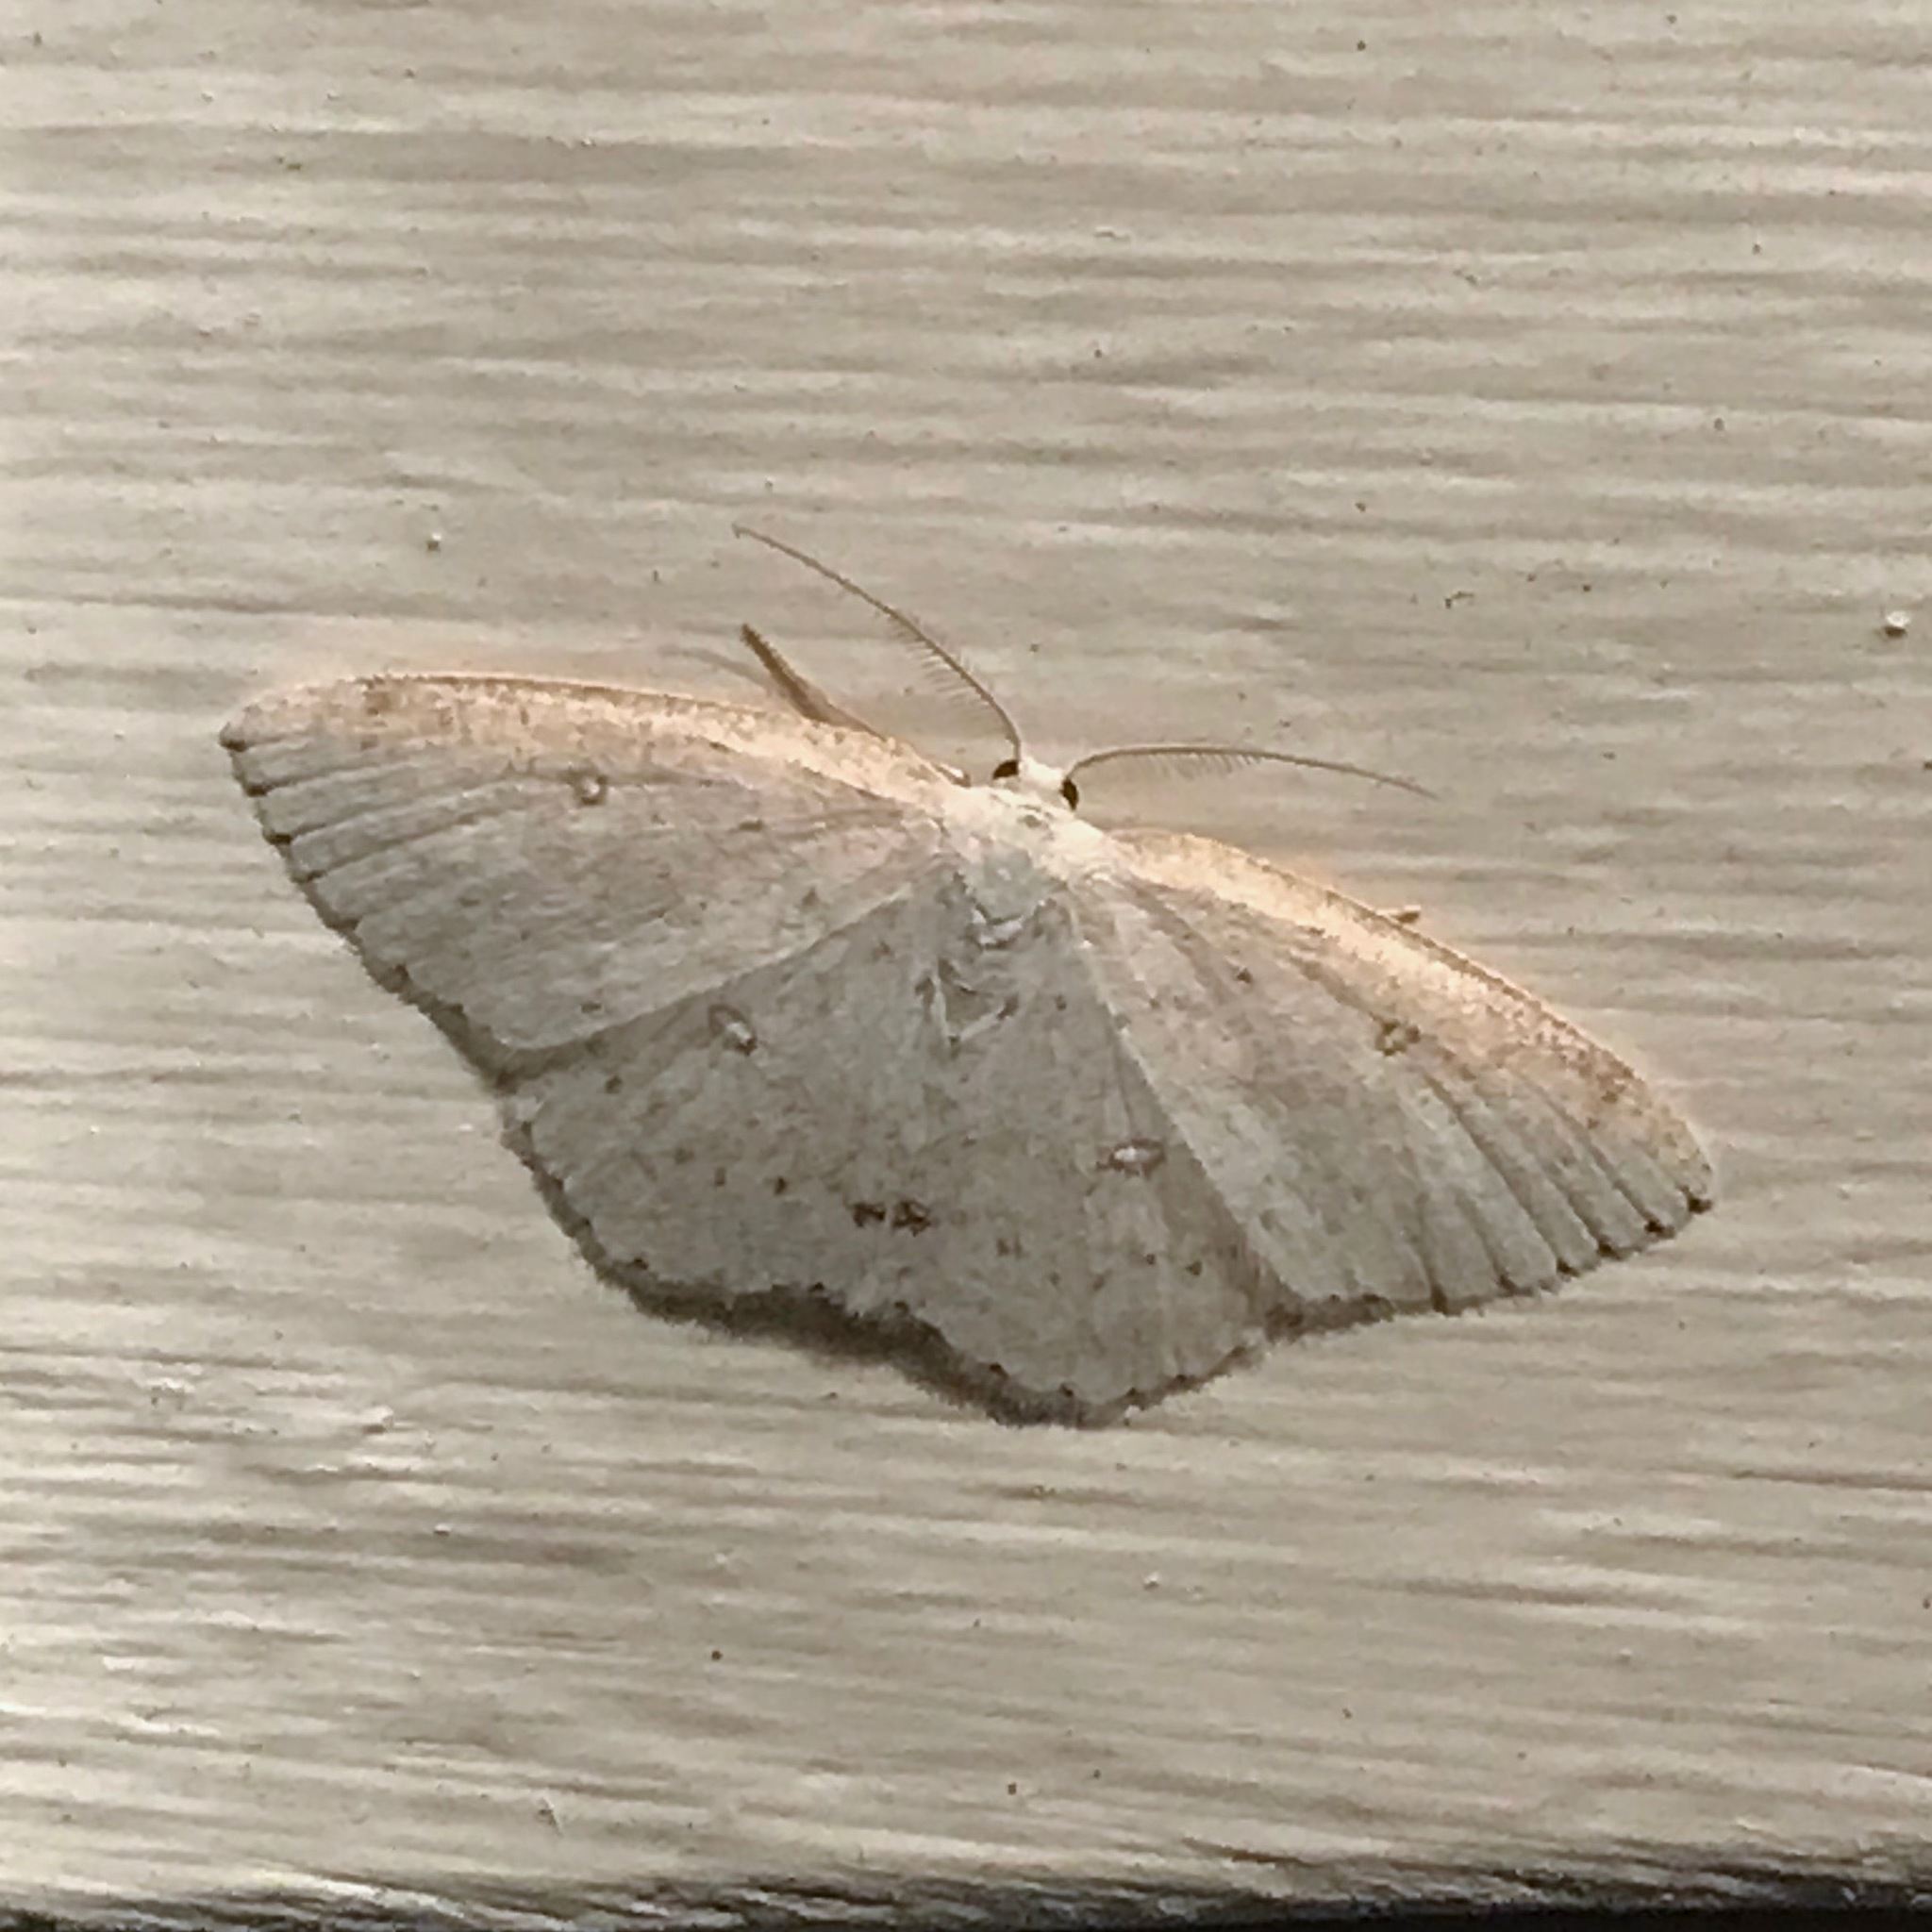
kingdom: Animalia
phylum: Arthropoda
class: Insecta
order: Lepidoptera
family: Geometridae
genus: Cyclophora
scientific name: Cyclophora pendulinaria
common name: Sweet fern geometer
